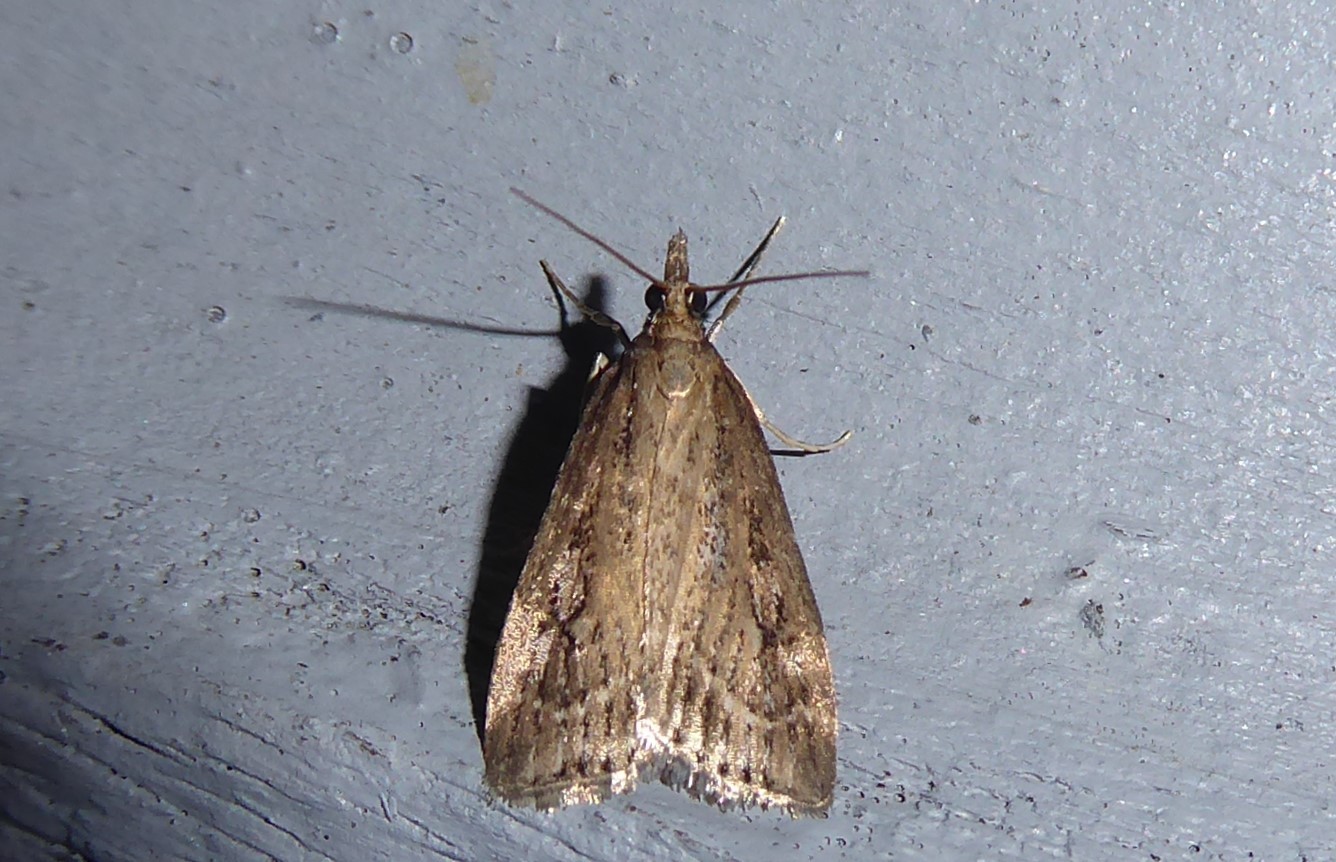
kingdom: Animalia
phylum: Arthropoda
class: Insecta
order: Lepidoptera
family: Crambidae
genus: Eudonia
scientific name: Eudonia octophora
